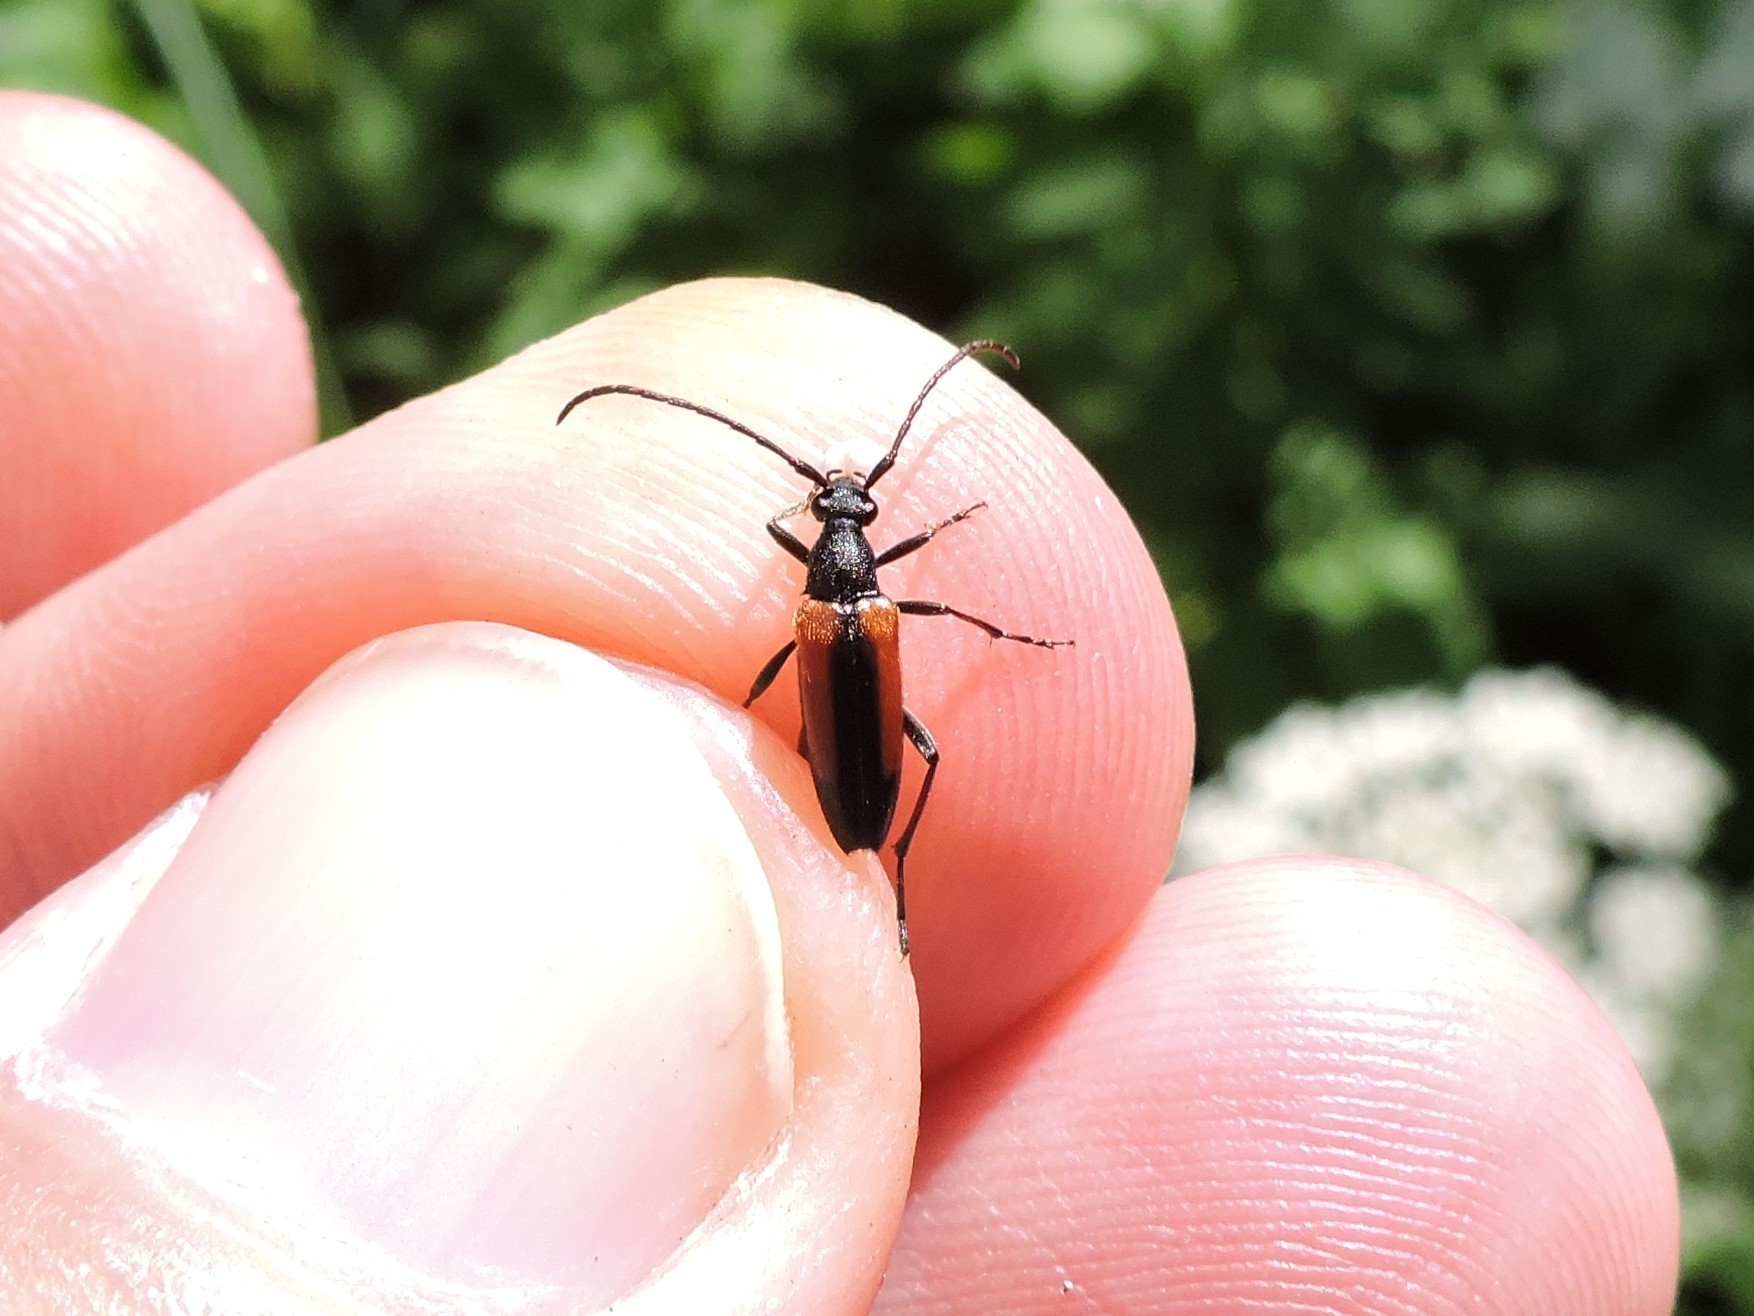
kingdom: Animalia
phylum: Arthropoda
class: Insecta
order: Coleoptera
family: Cerambycidae
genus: Stenurella
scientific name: Stenurella melanura
